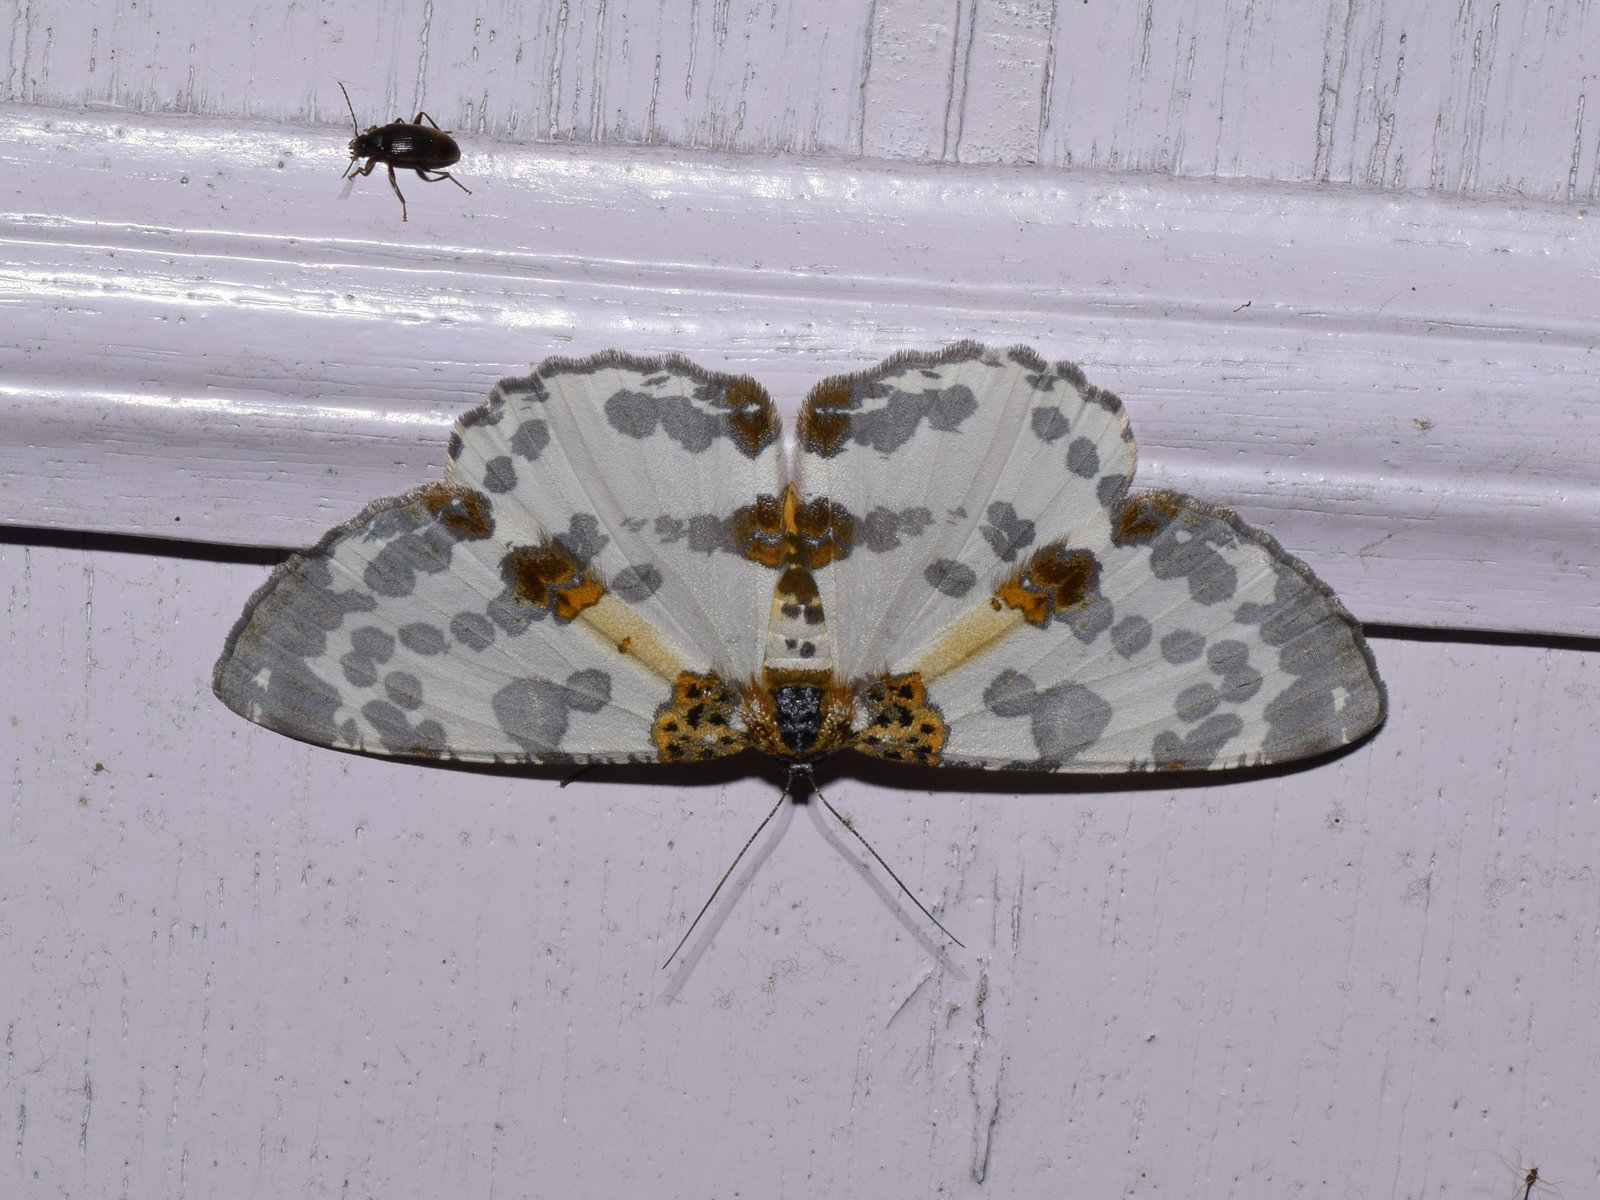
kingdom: Animalia
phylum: Arthropoda
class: Insecta
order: Lepidoptera
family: Geometridae
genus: Hypomecis
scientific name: Hypomecis fulvosparsa
